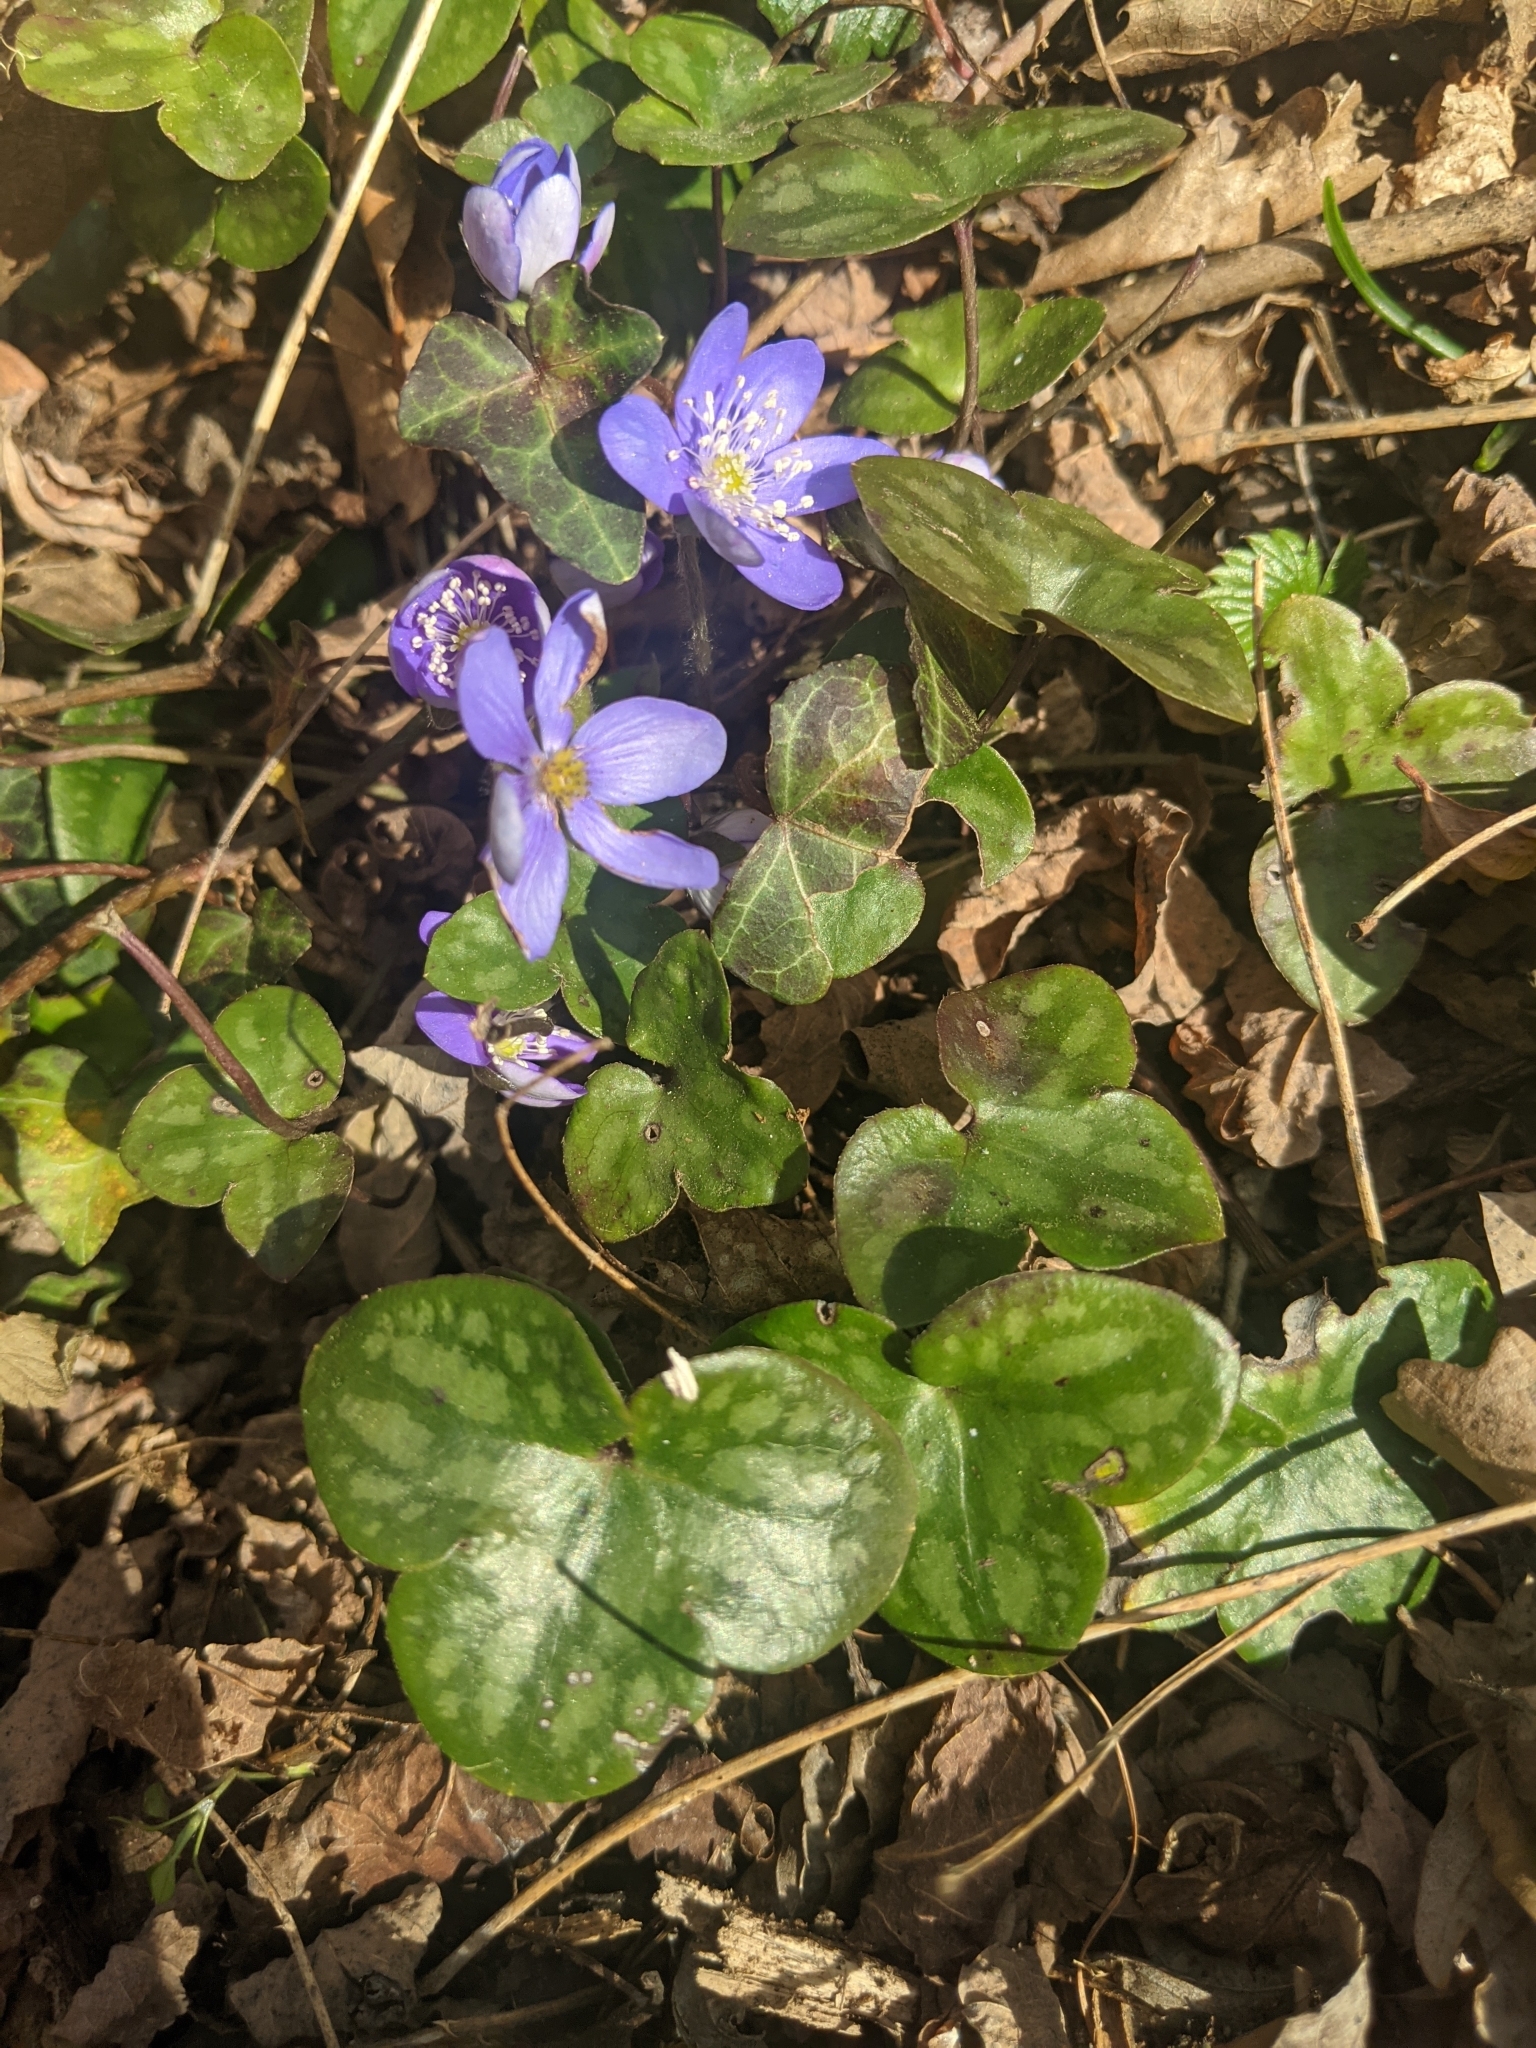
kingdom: Plantae
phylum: Tracheophyta
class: Magnoliopsida
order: Ranunculales
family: Ranunculaceae
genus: Hepatica
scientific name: Hepatica nobilis
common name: Liverleaf
